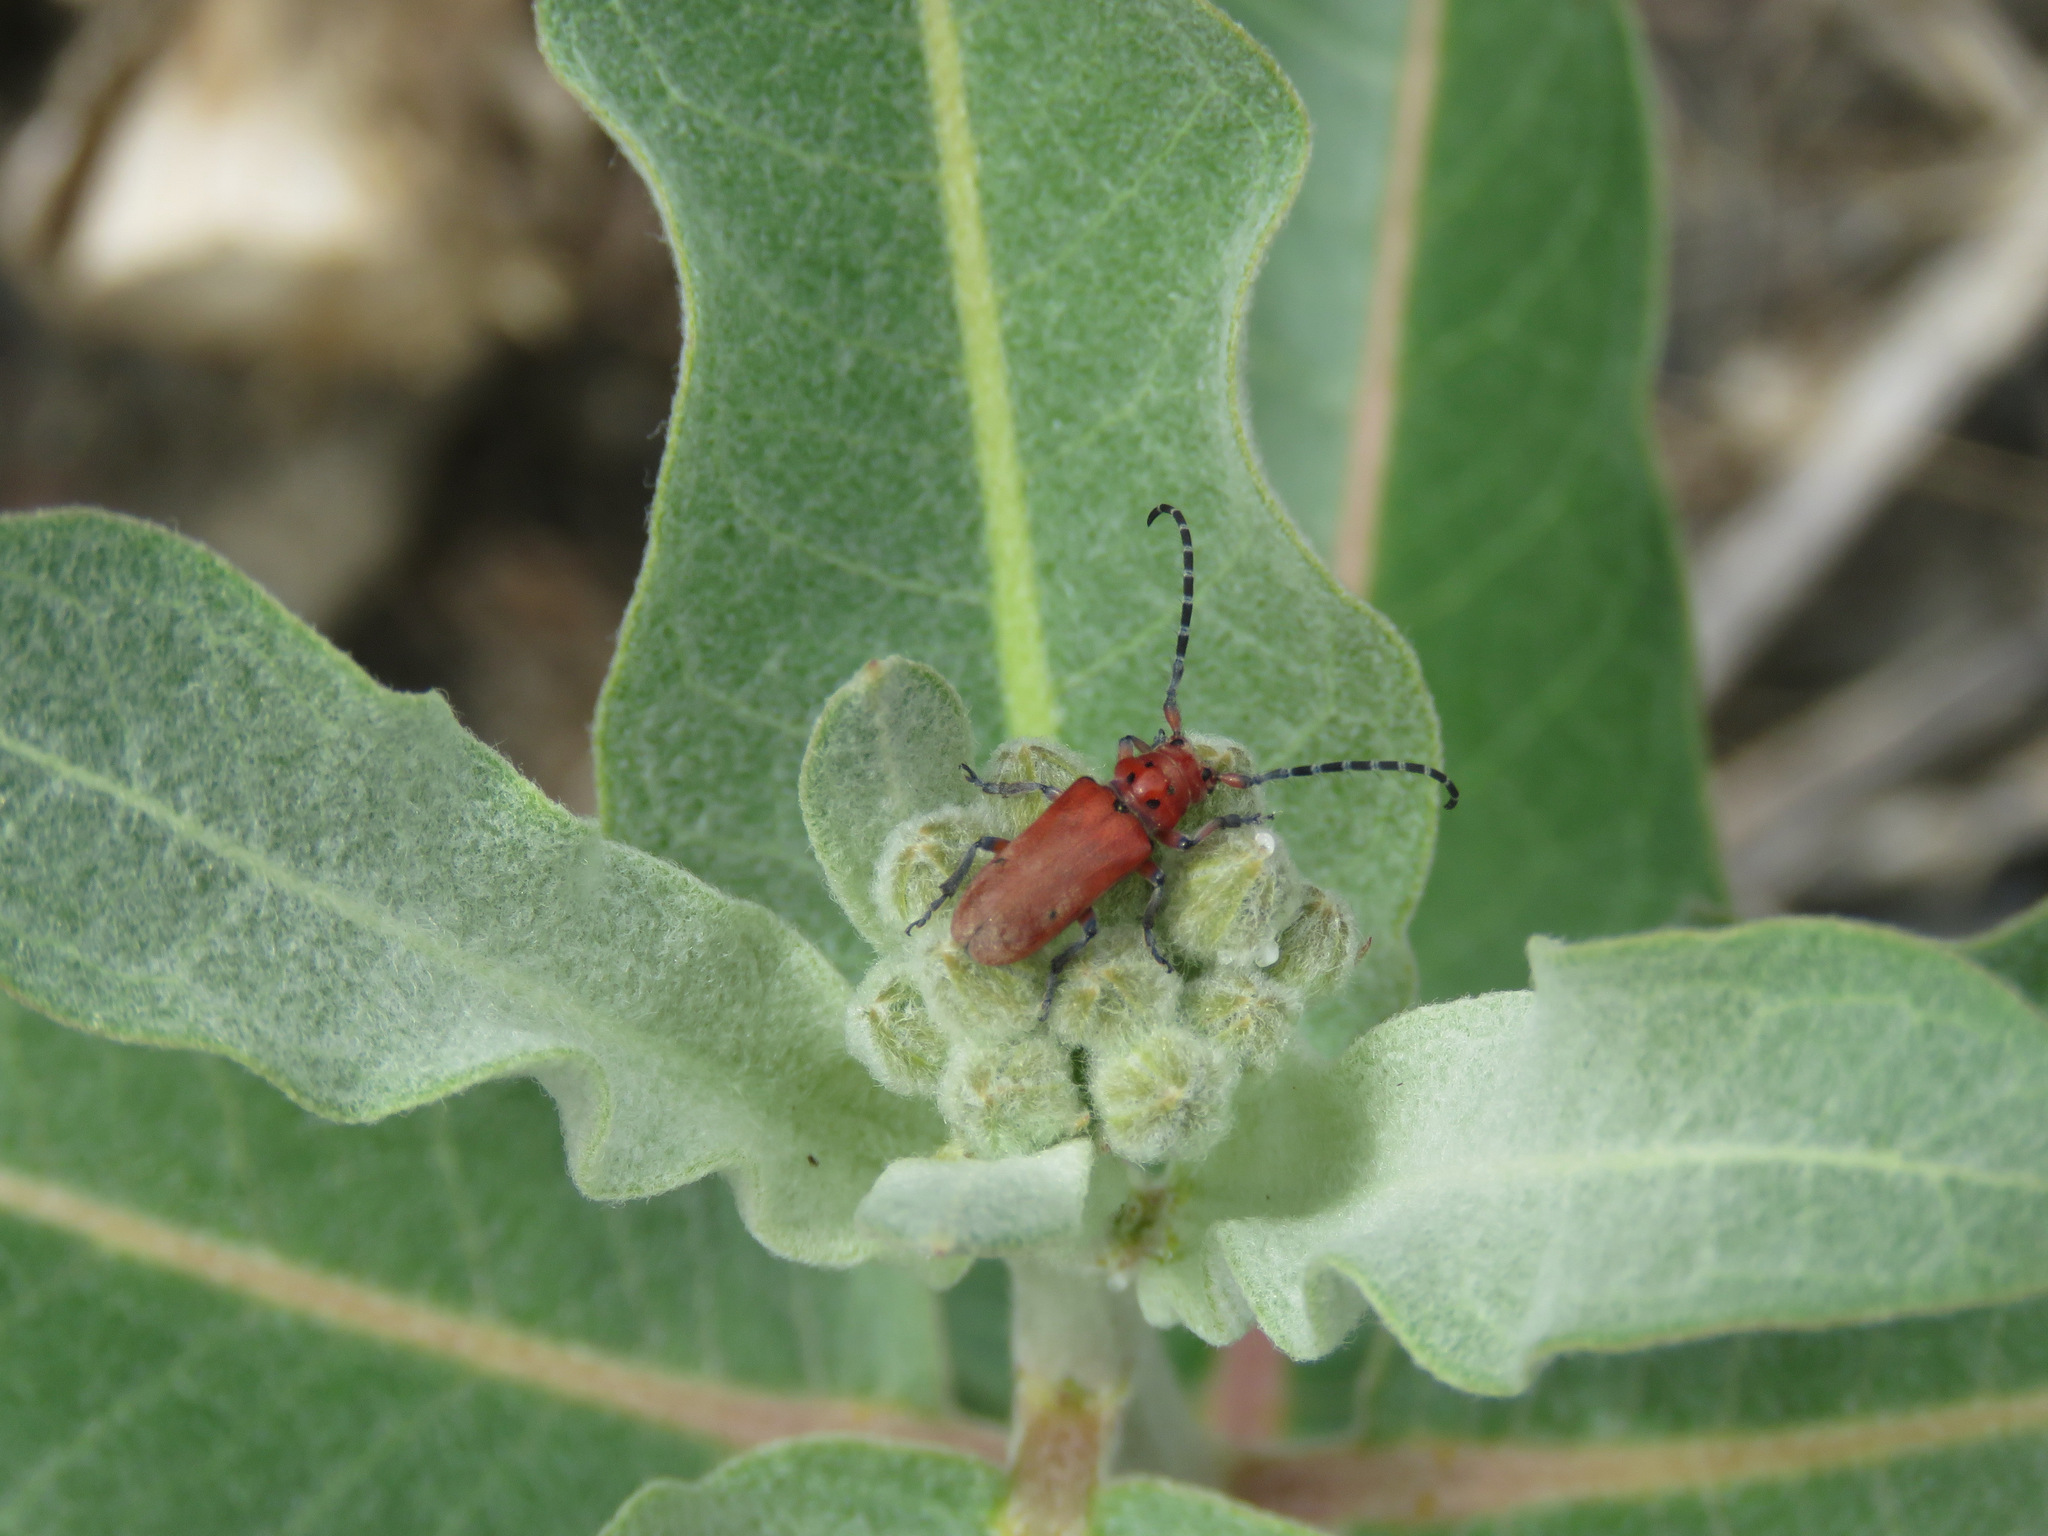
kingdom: Animalia
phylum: Arthropoda
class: Insecta
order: Coleoptera
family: Cerambycidae
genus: Tetraopes
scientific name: Tetraopes femoratus
